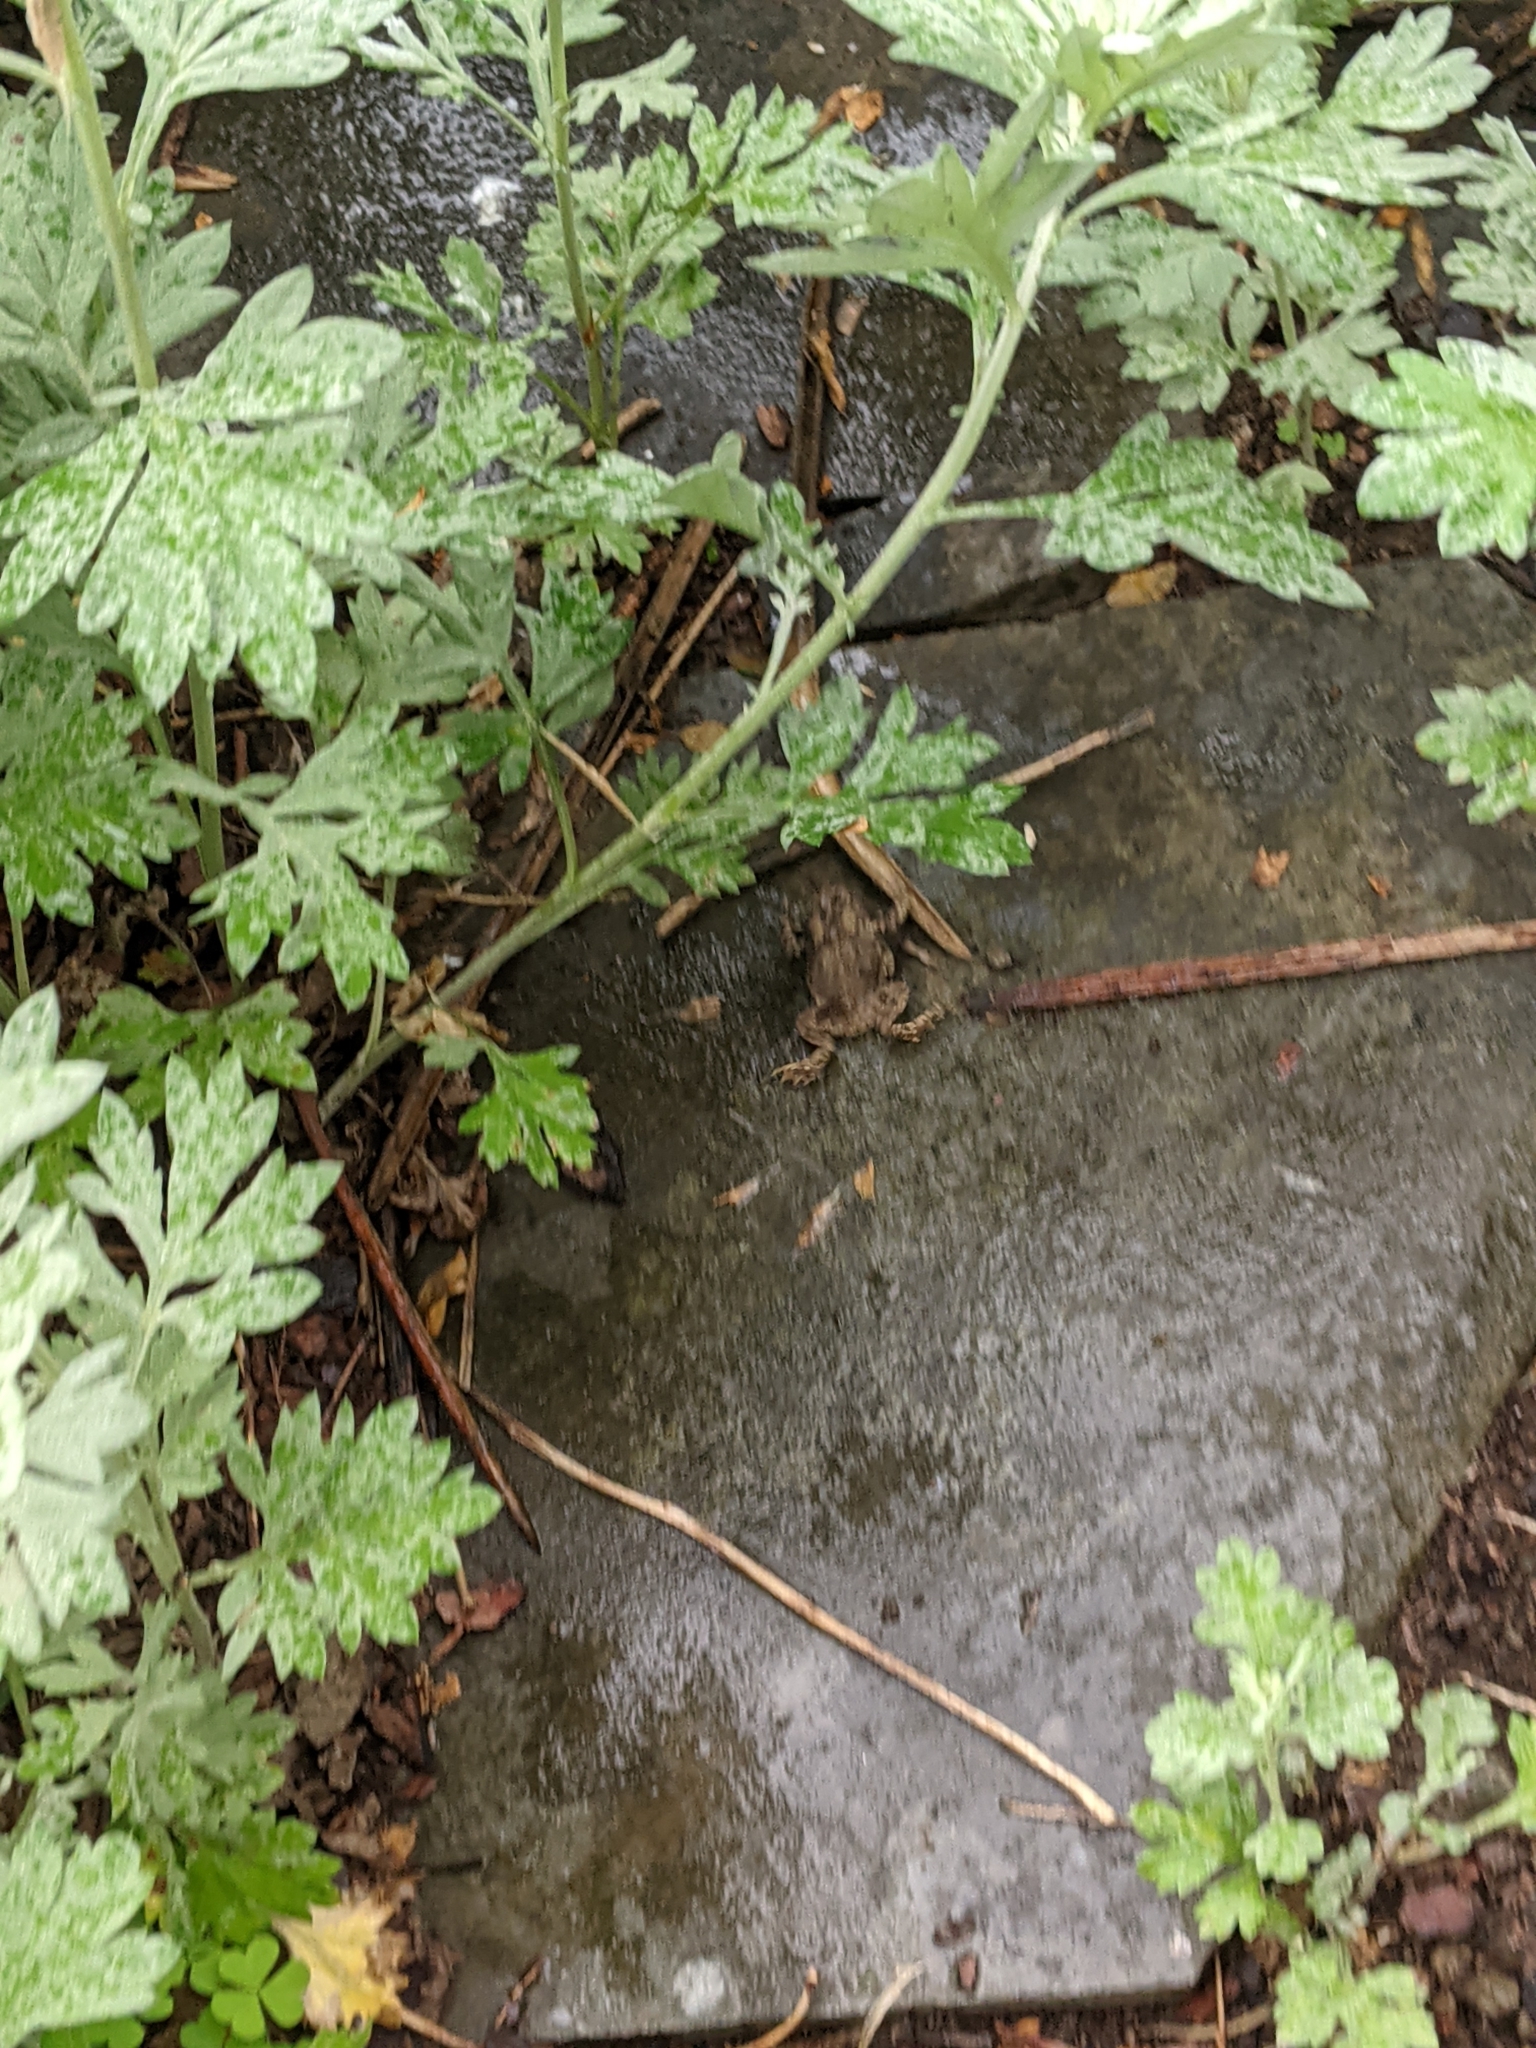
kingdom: Animalia
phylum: Chordata
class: Amphibia
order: Anura
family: Bufonidae
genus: Anaxyrus
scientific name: Anaxyrus americanus
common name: American toad
